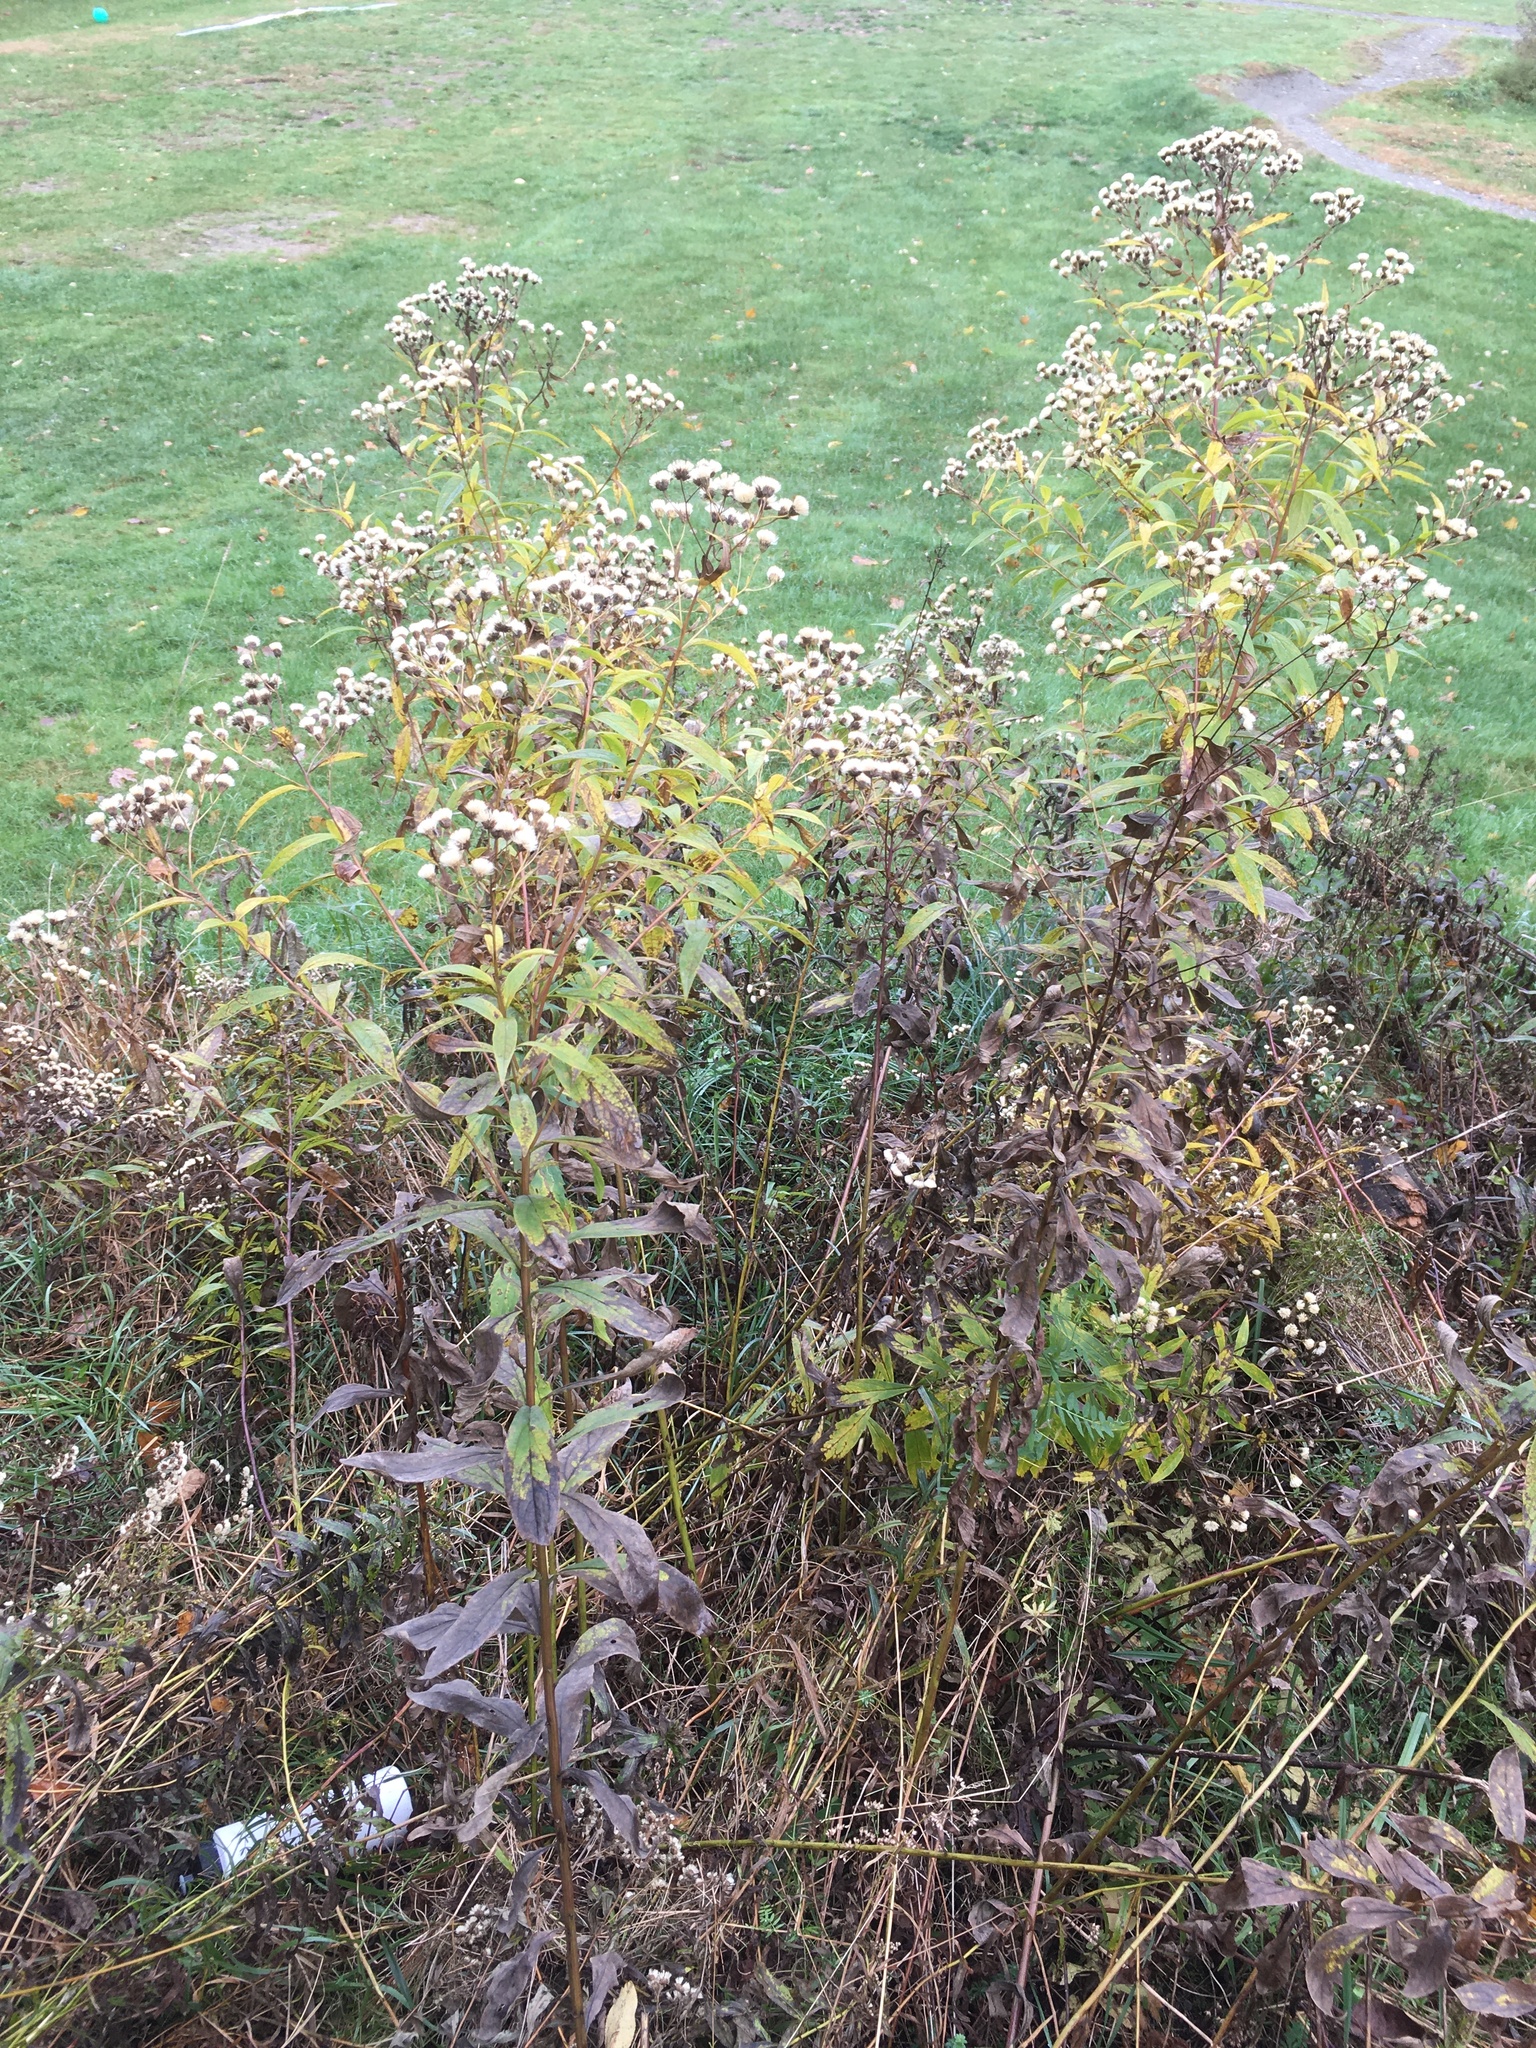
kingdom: Plantae
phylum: Tracheophyta
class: Magnoliopsida
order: Asterales
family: Asteraceae
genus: Doellingeria
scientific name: Doellingeria umbellata
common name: Flat-top white aster
